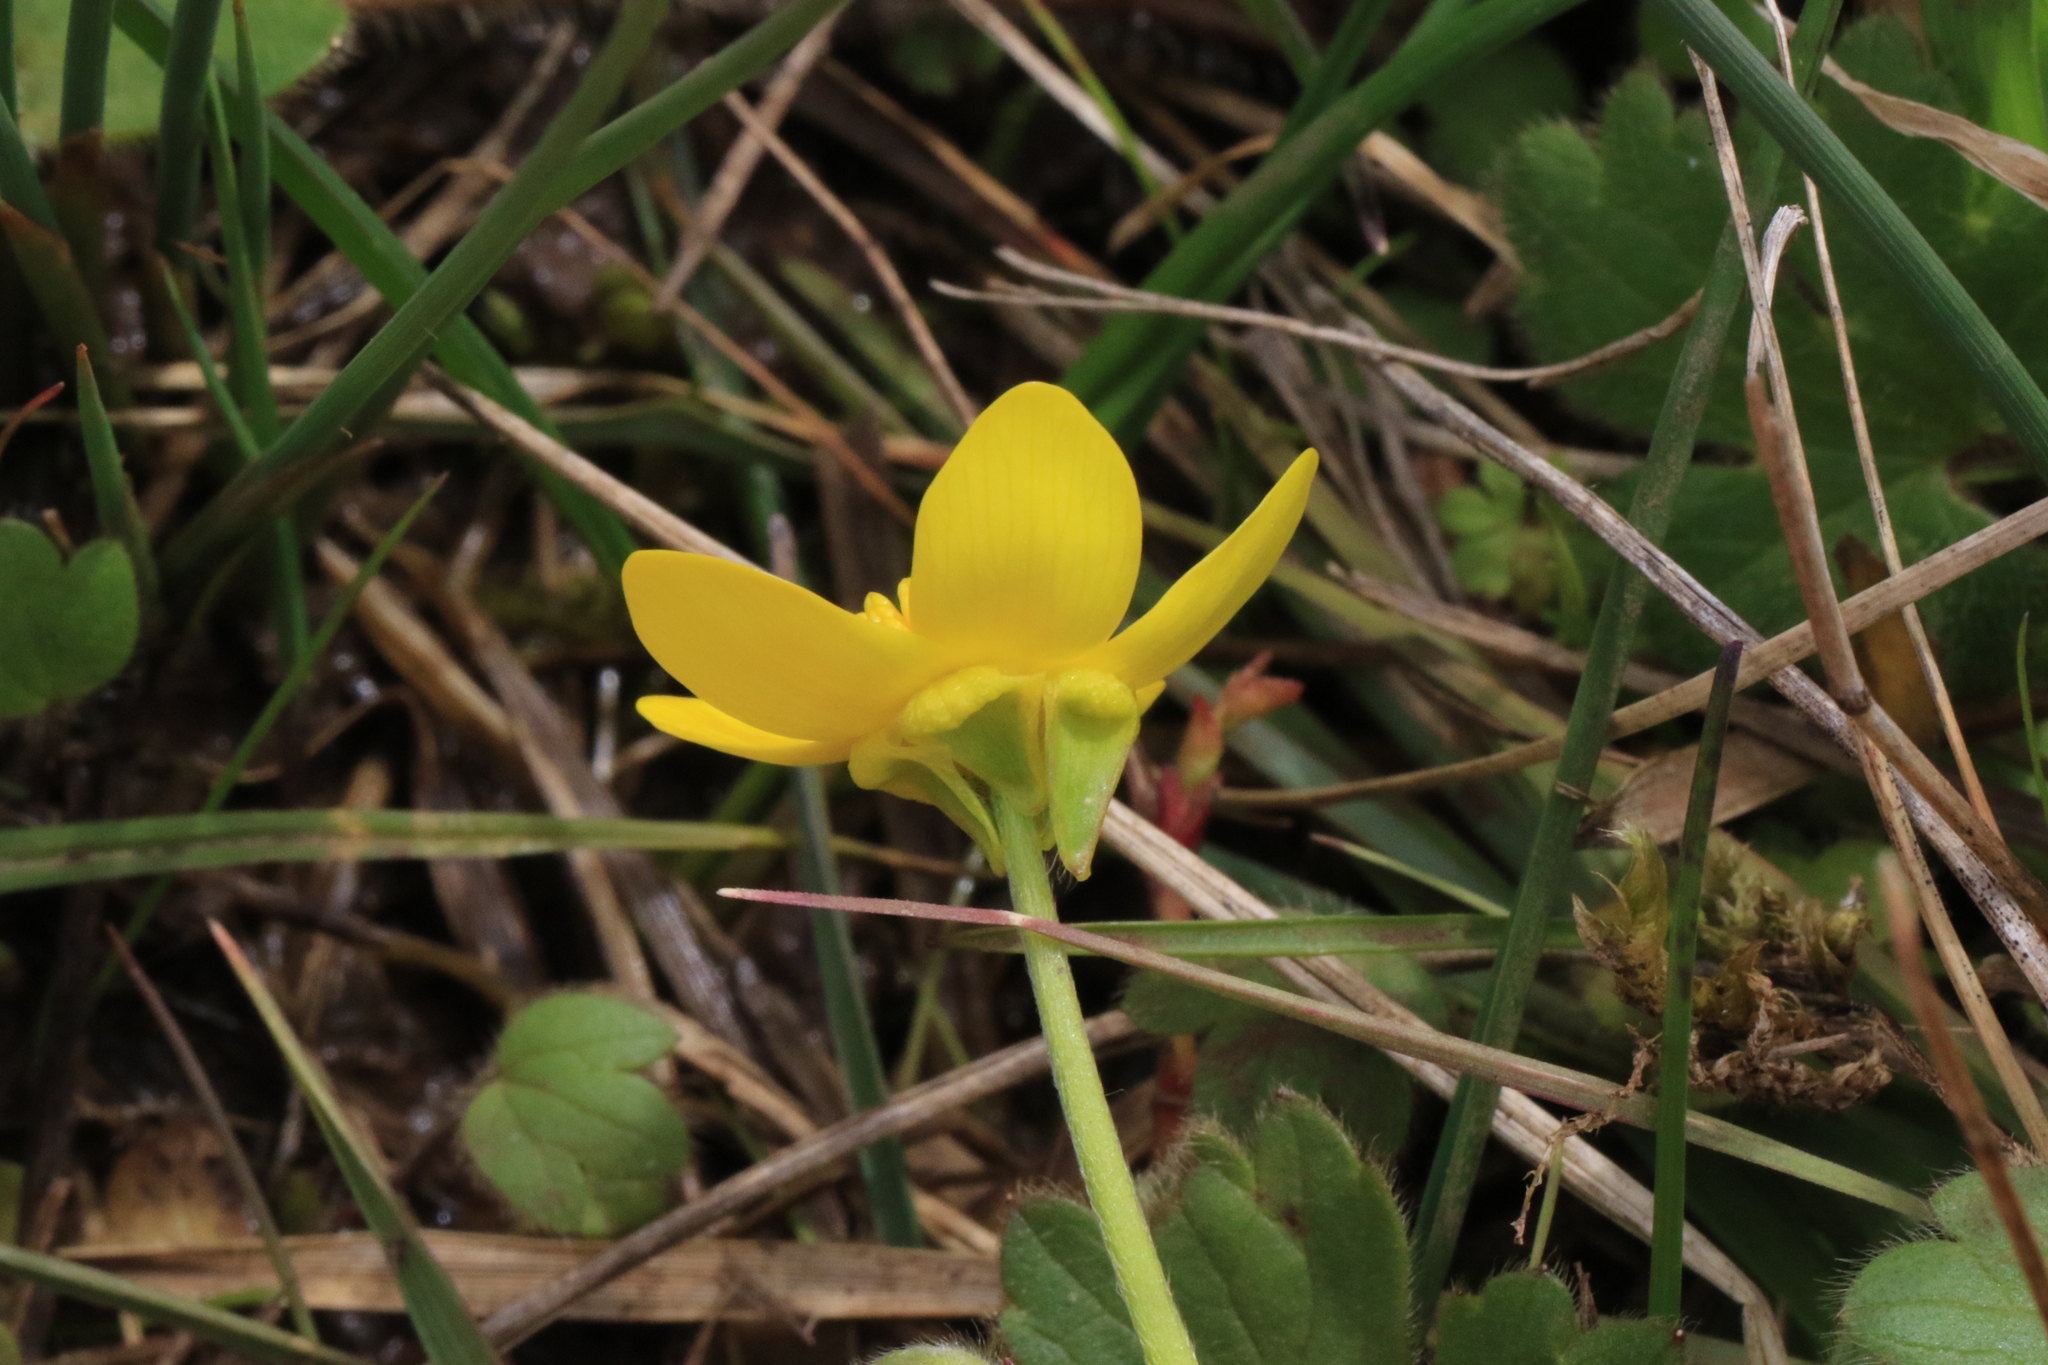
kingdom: Plantae
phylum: Tracheophyta
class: Magnoliopsida
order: Ranunculales
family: Ranunculaceae
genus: Ranunculus
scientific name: Ranunculus occidentalis
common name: Western buttercup
